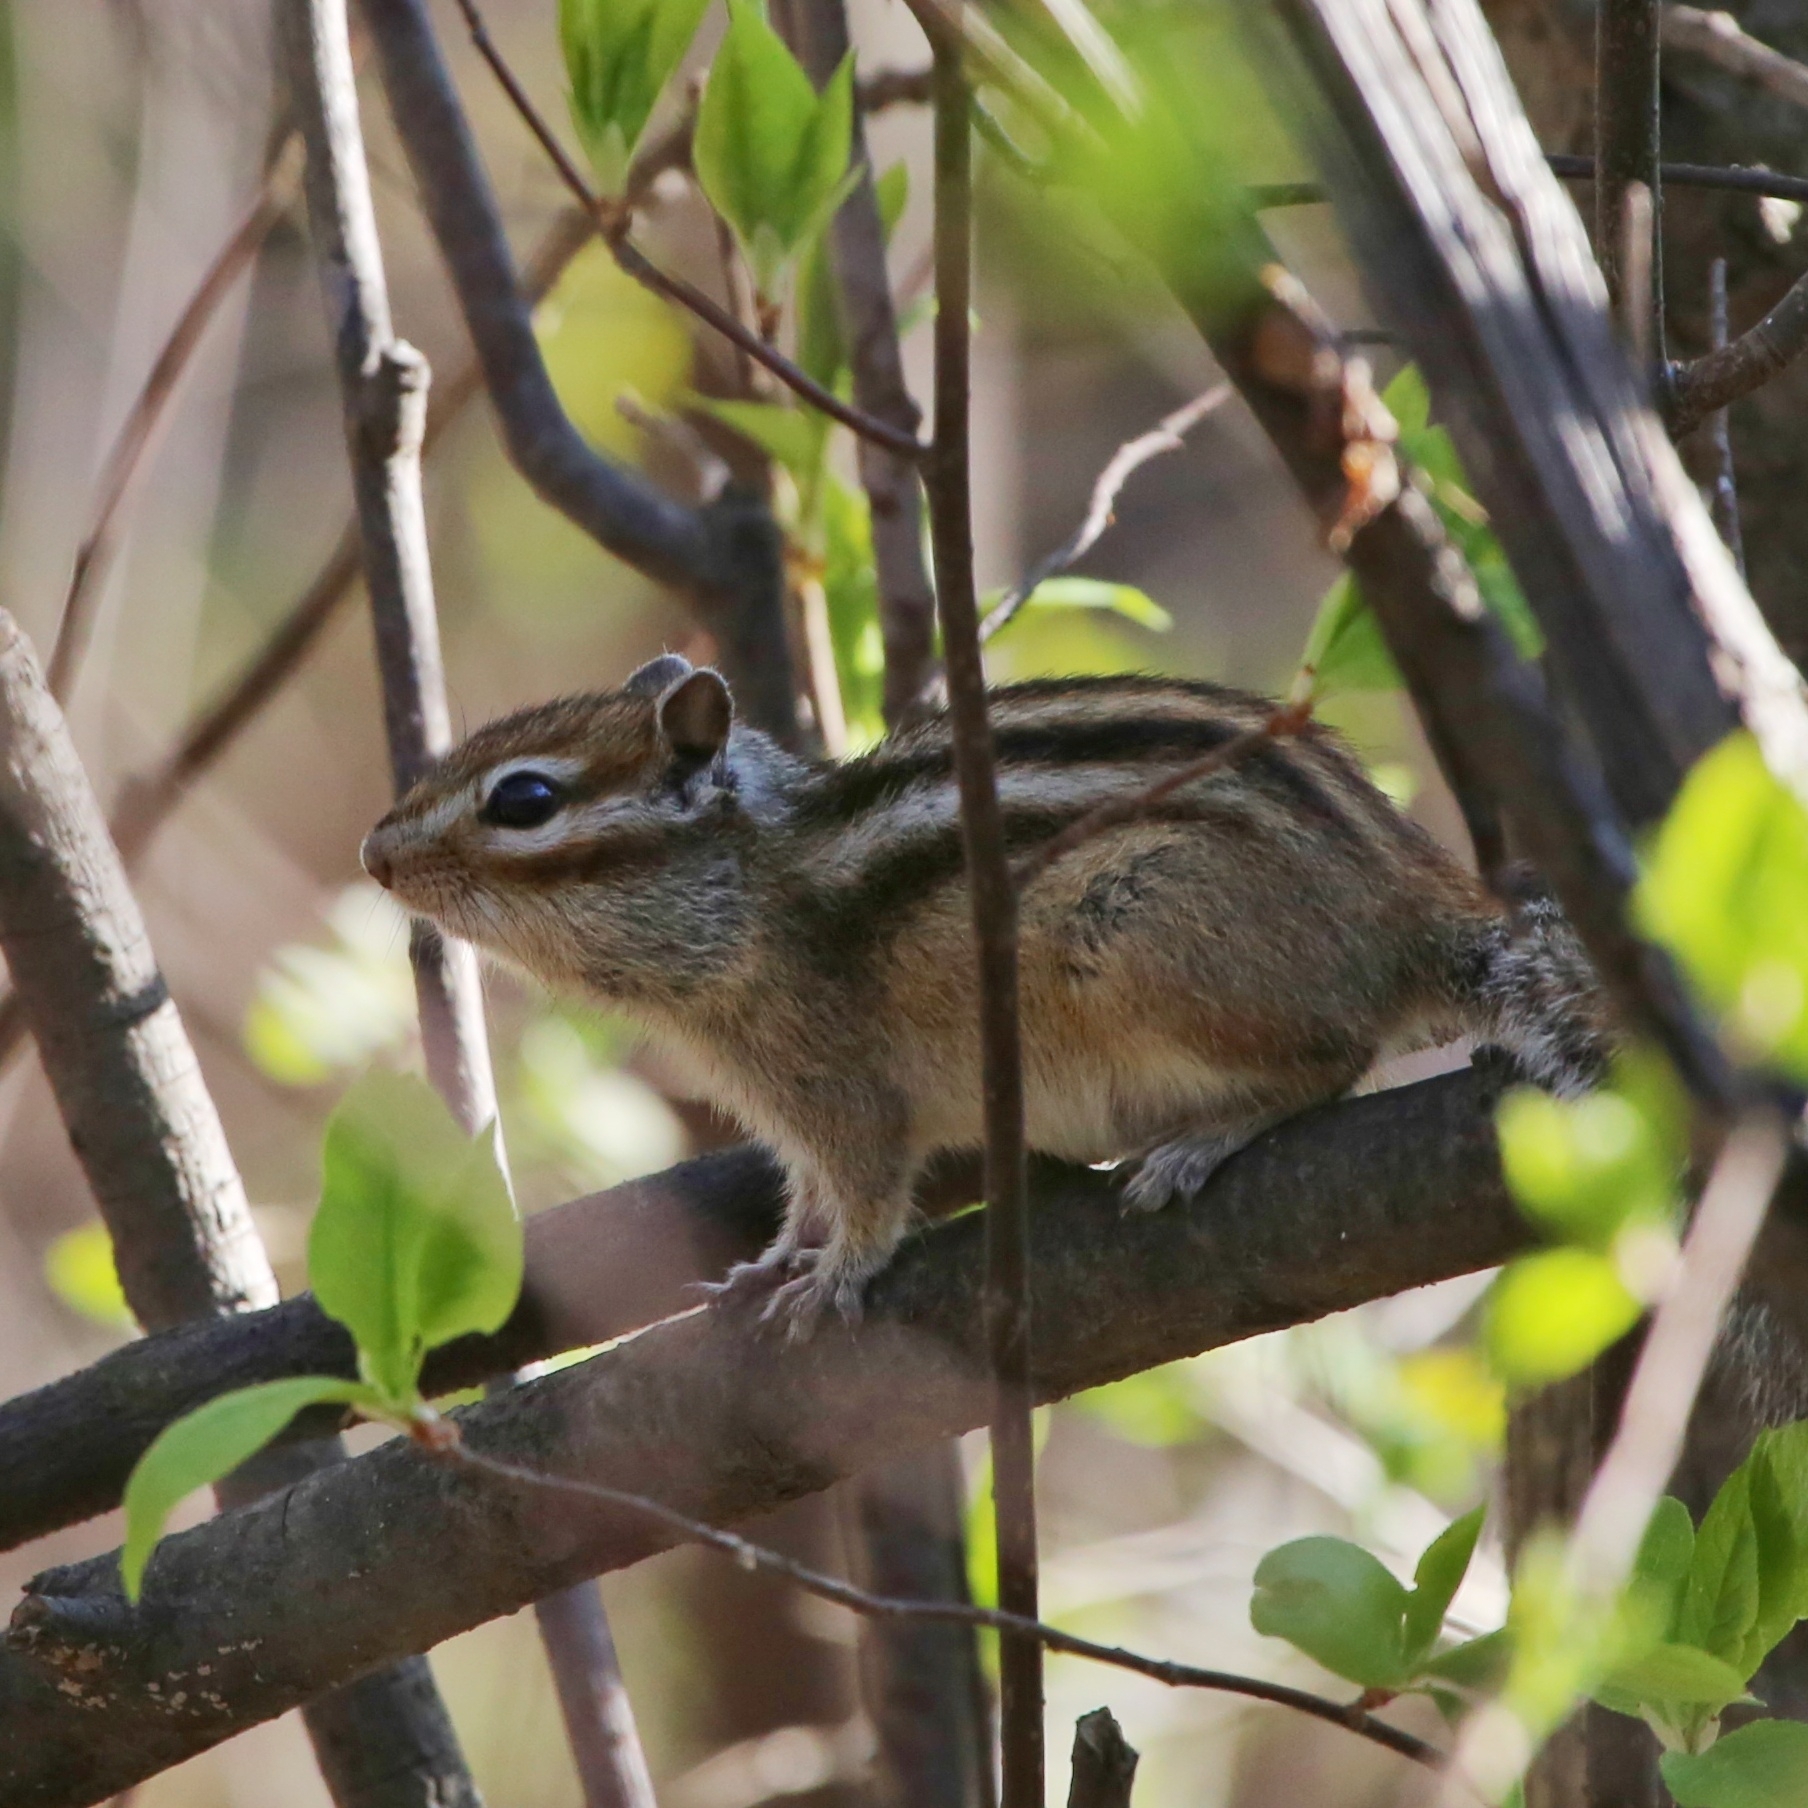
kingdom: Animalia
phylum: Chordata
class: Mammalia
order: Rodentia
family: Sciuridae
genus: Tamias
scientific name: Tamias sibiricus
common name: Siberian chipmunk
